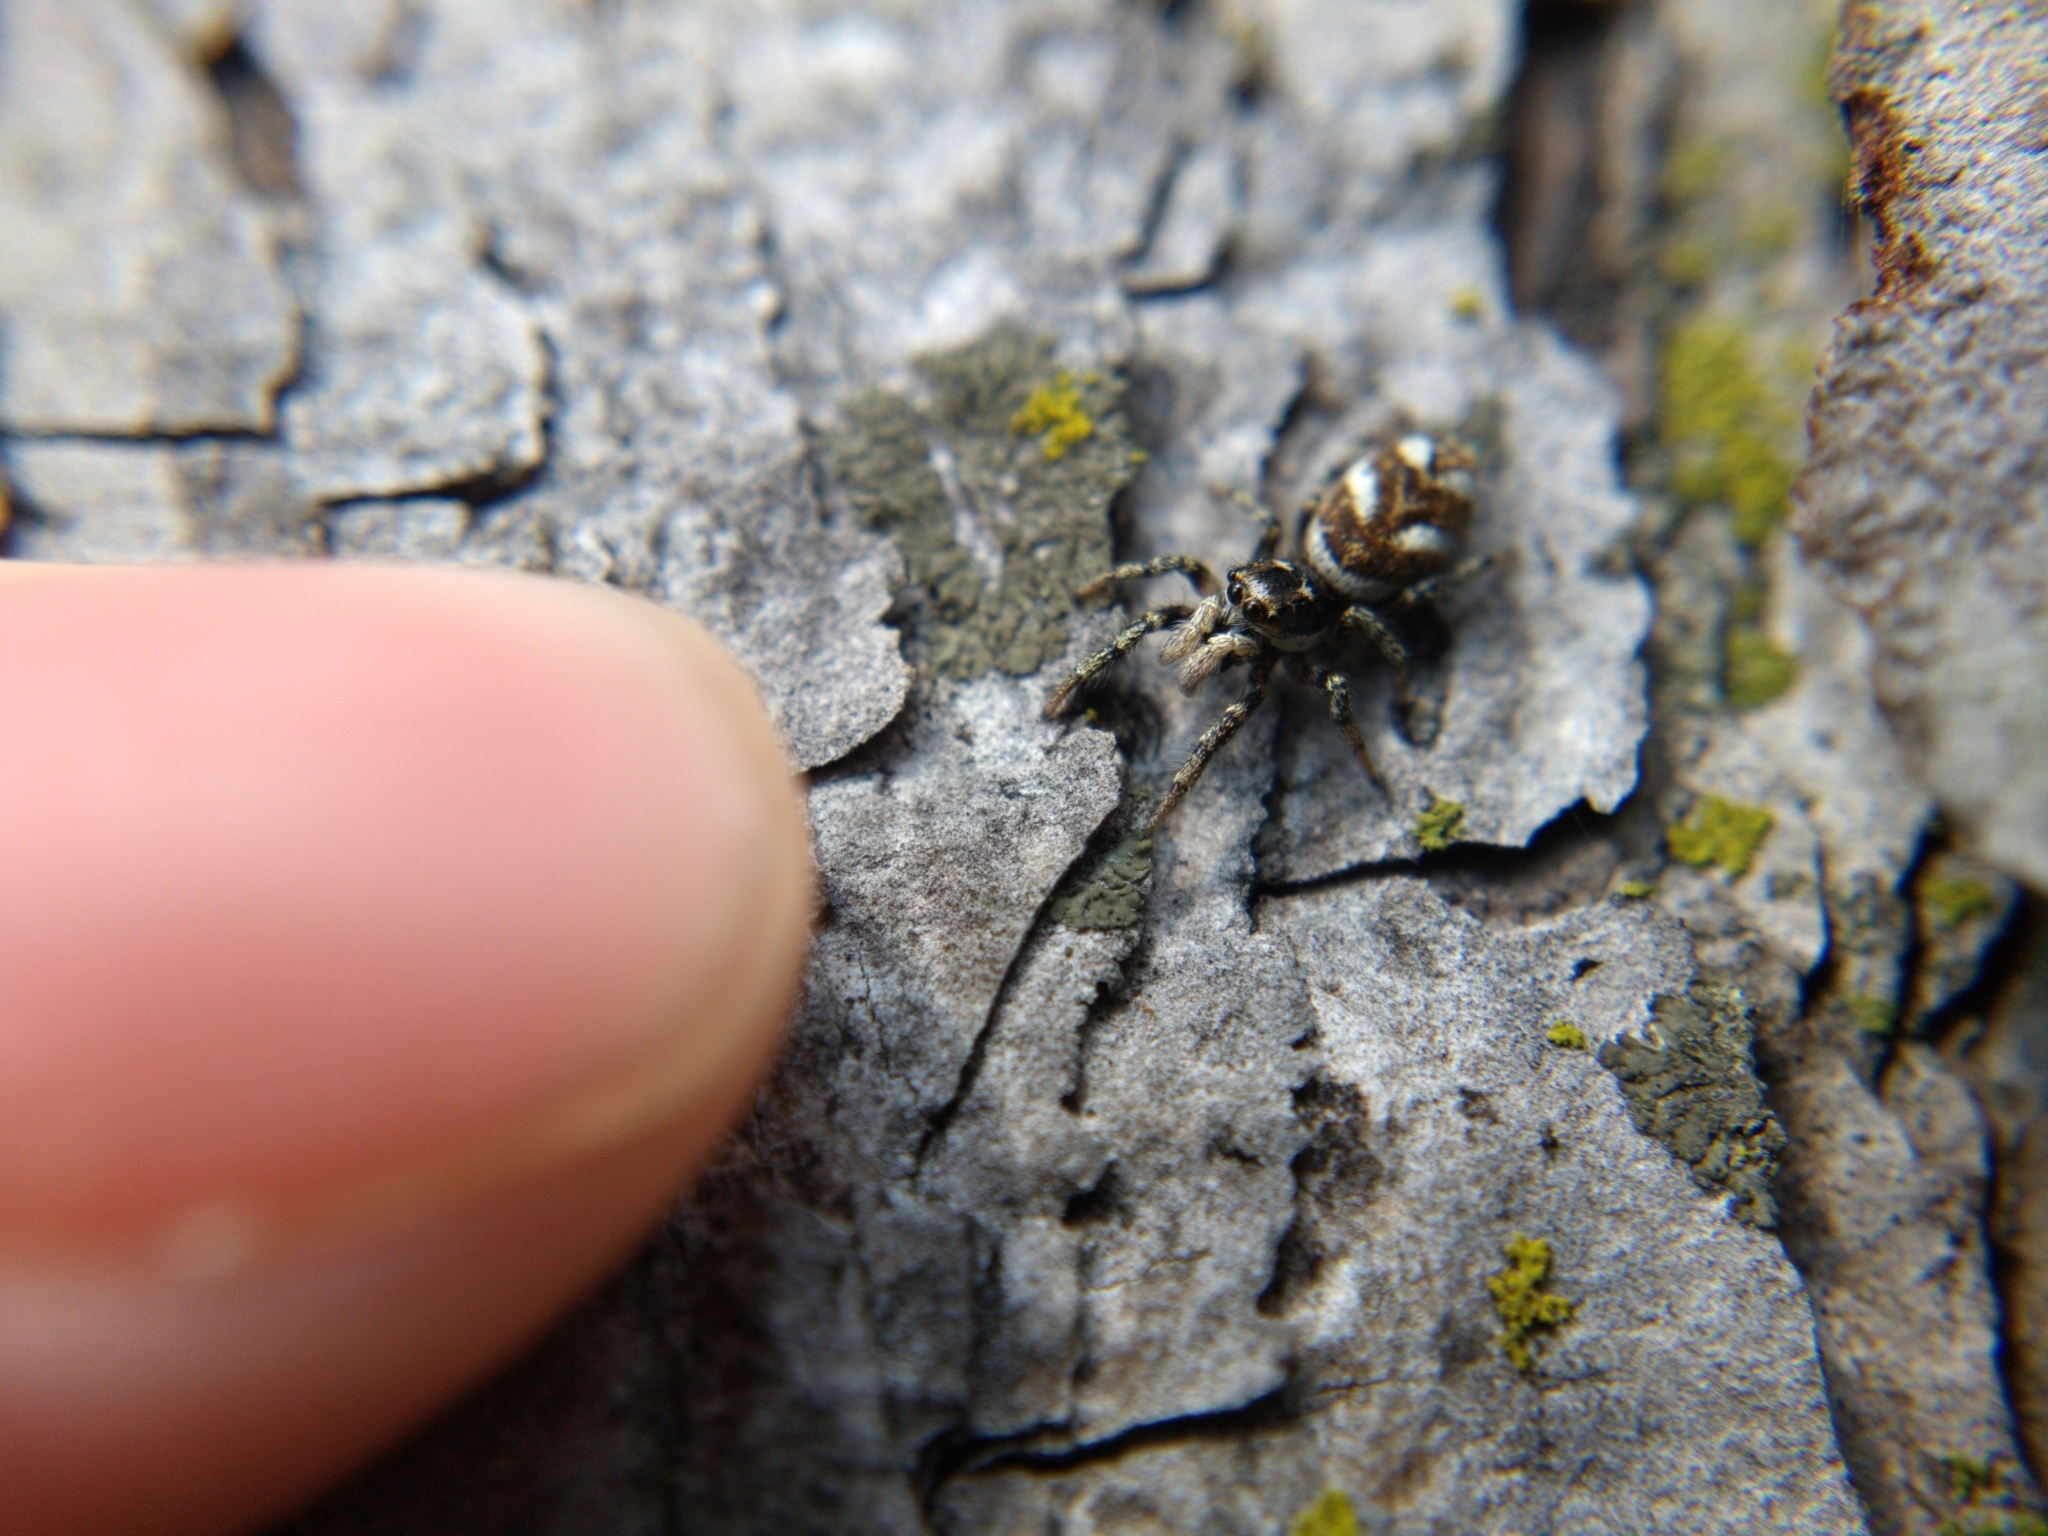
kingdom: Animalia
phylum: Arthropoda
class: Arachnida
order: Araneae
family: Salticidae
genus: Salticus
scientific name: Salticus scenicus
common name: Zebra jumper
